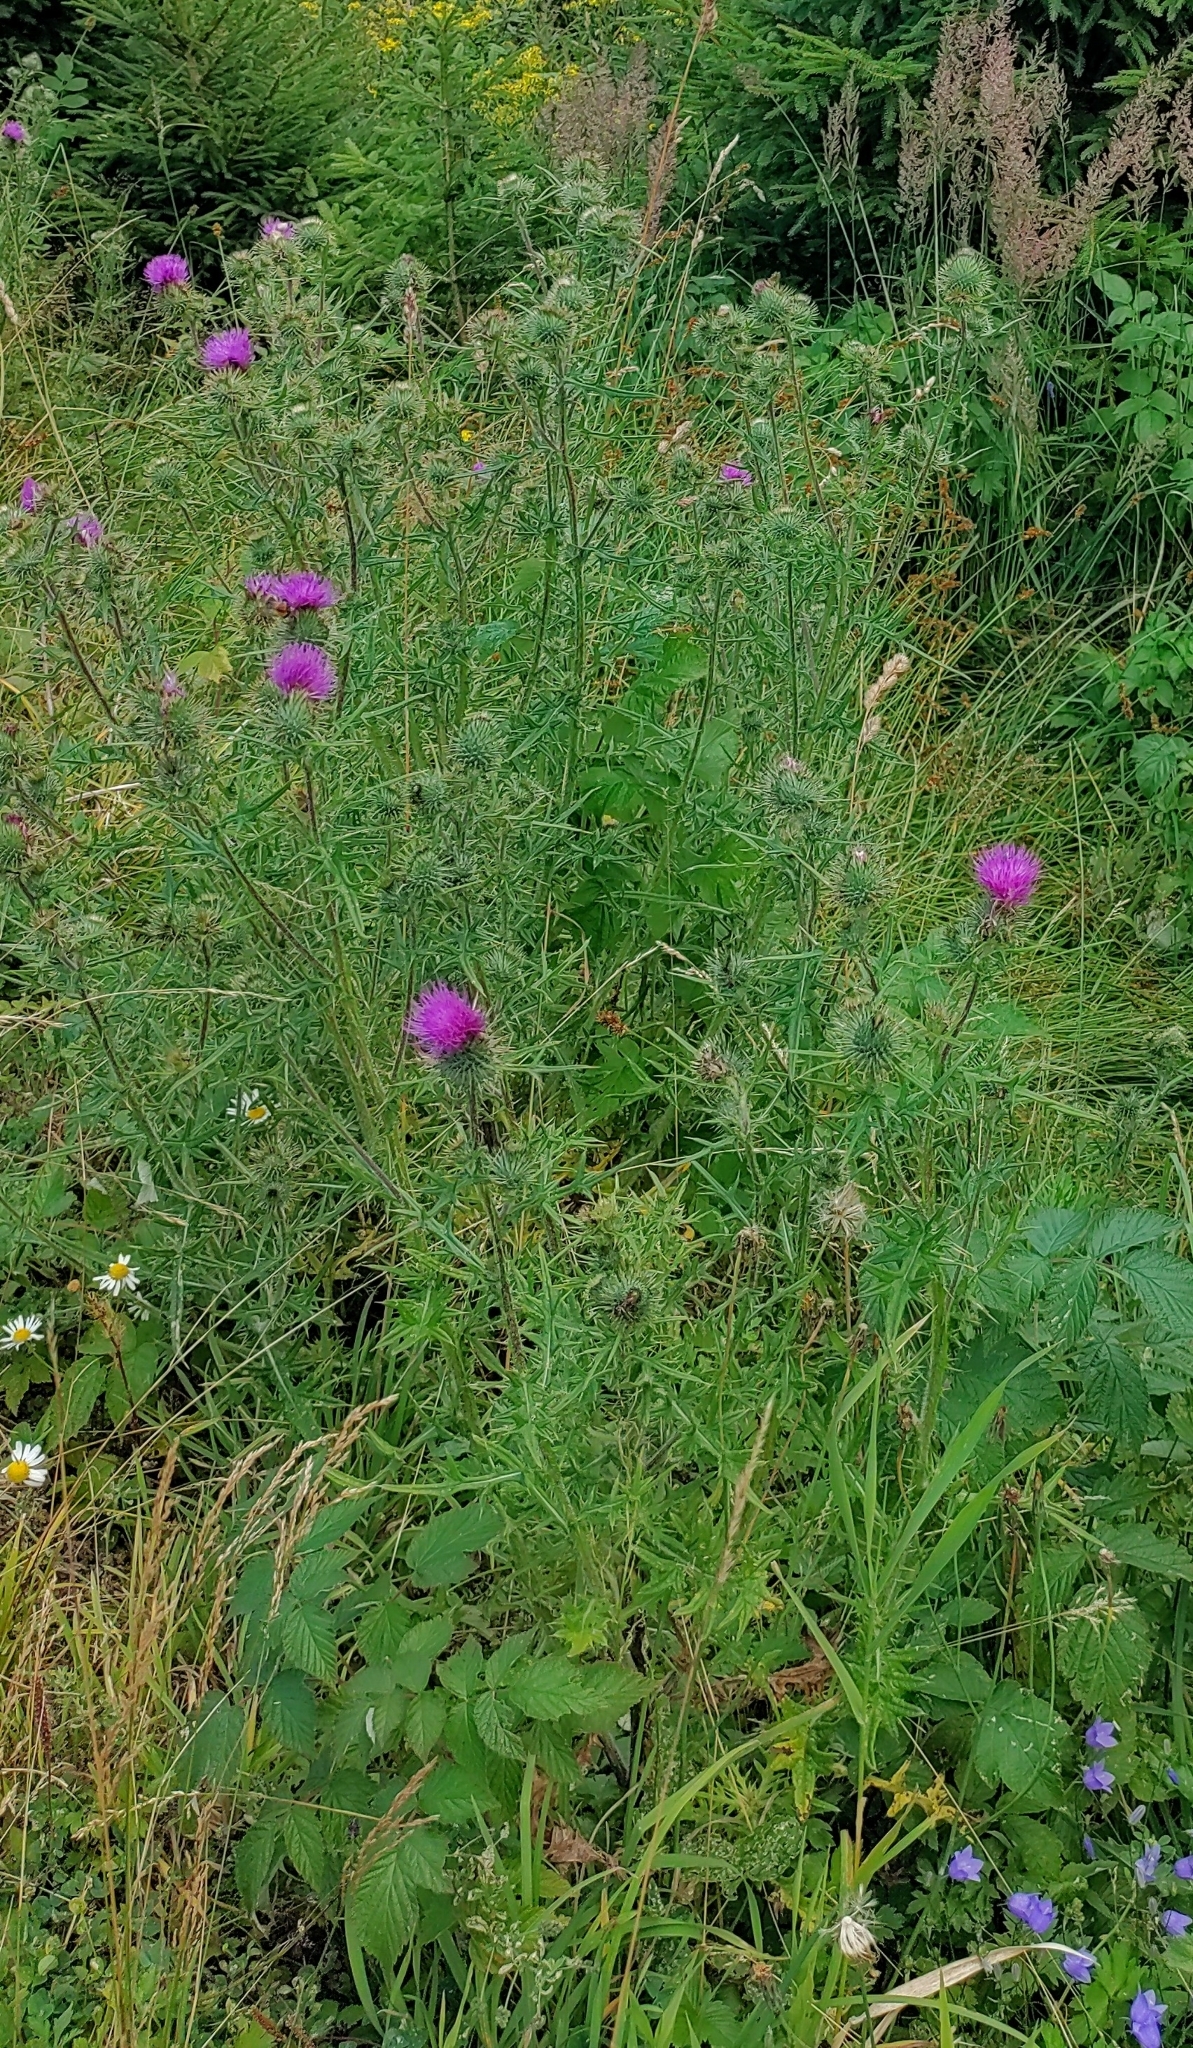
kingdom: Plantae
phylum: Tracheophyta
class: Magnoliopsida
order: Asterales
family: Asteraceae
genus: Cirsium
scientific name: Cirsium vulgare
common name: Bull thistle
